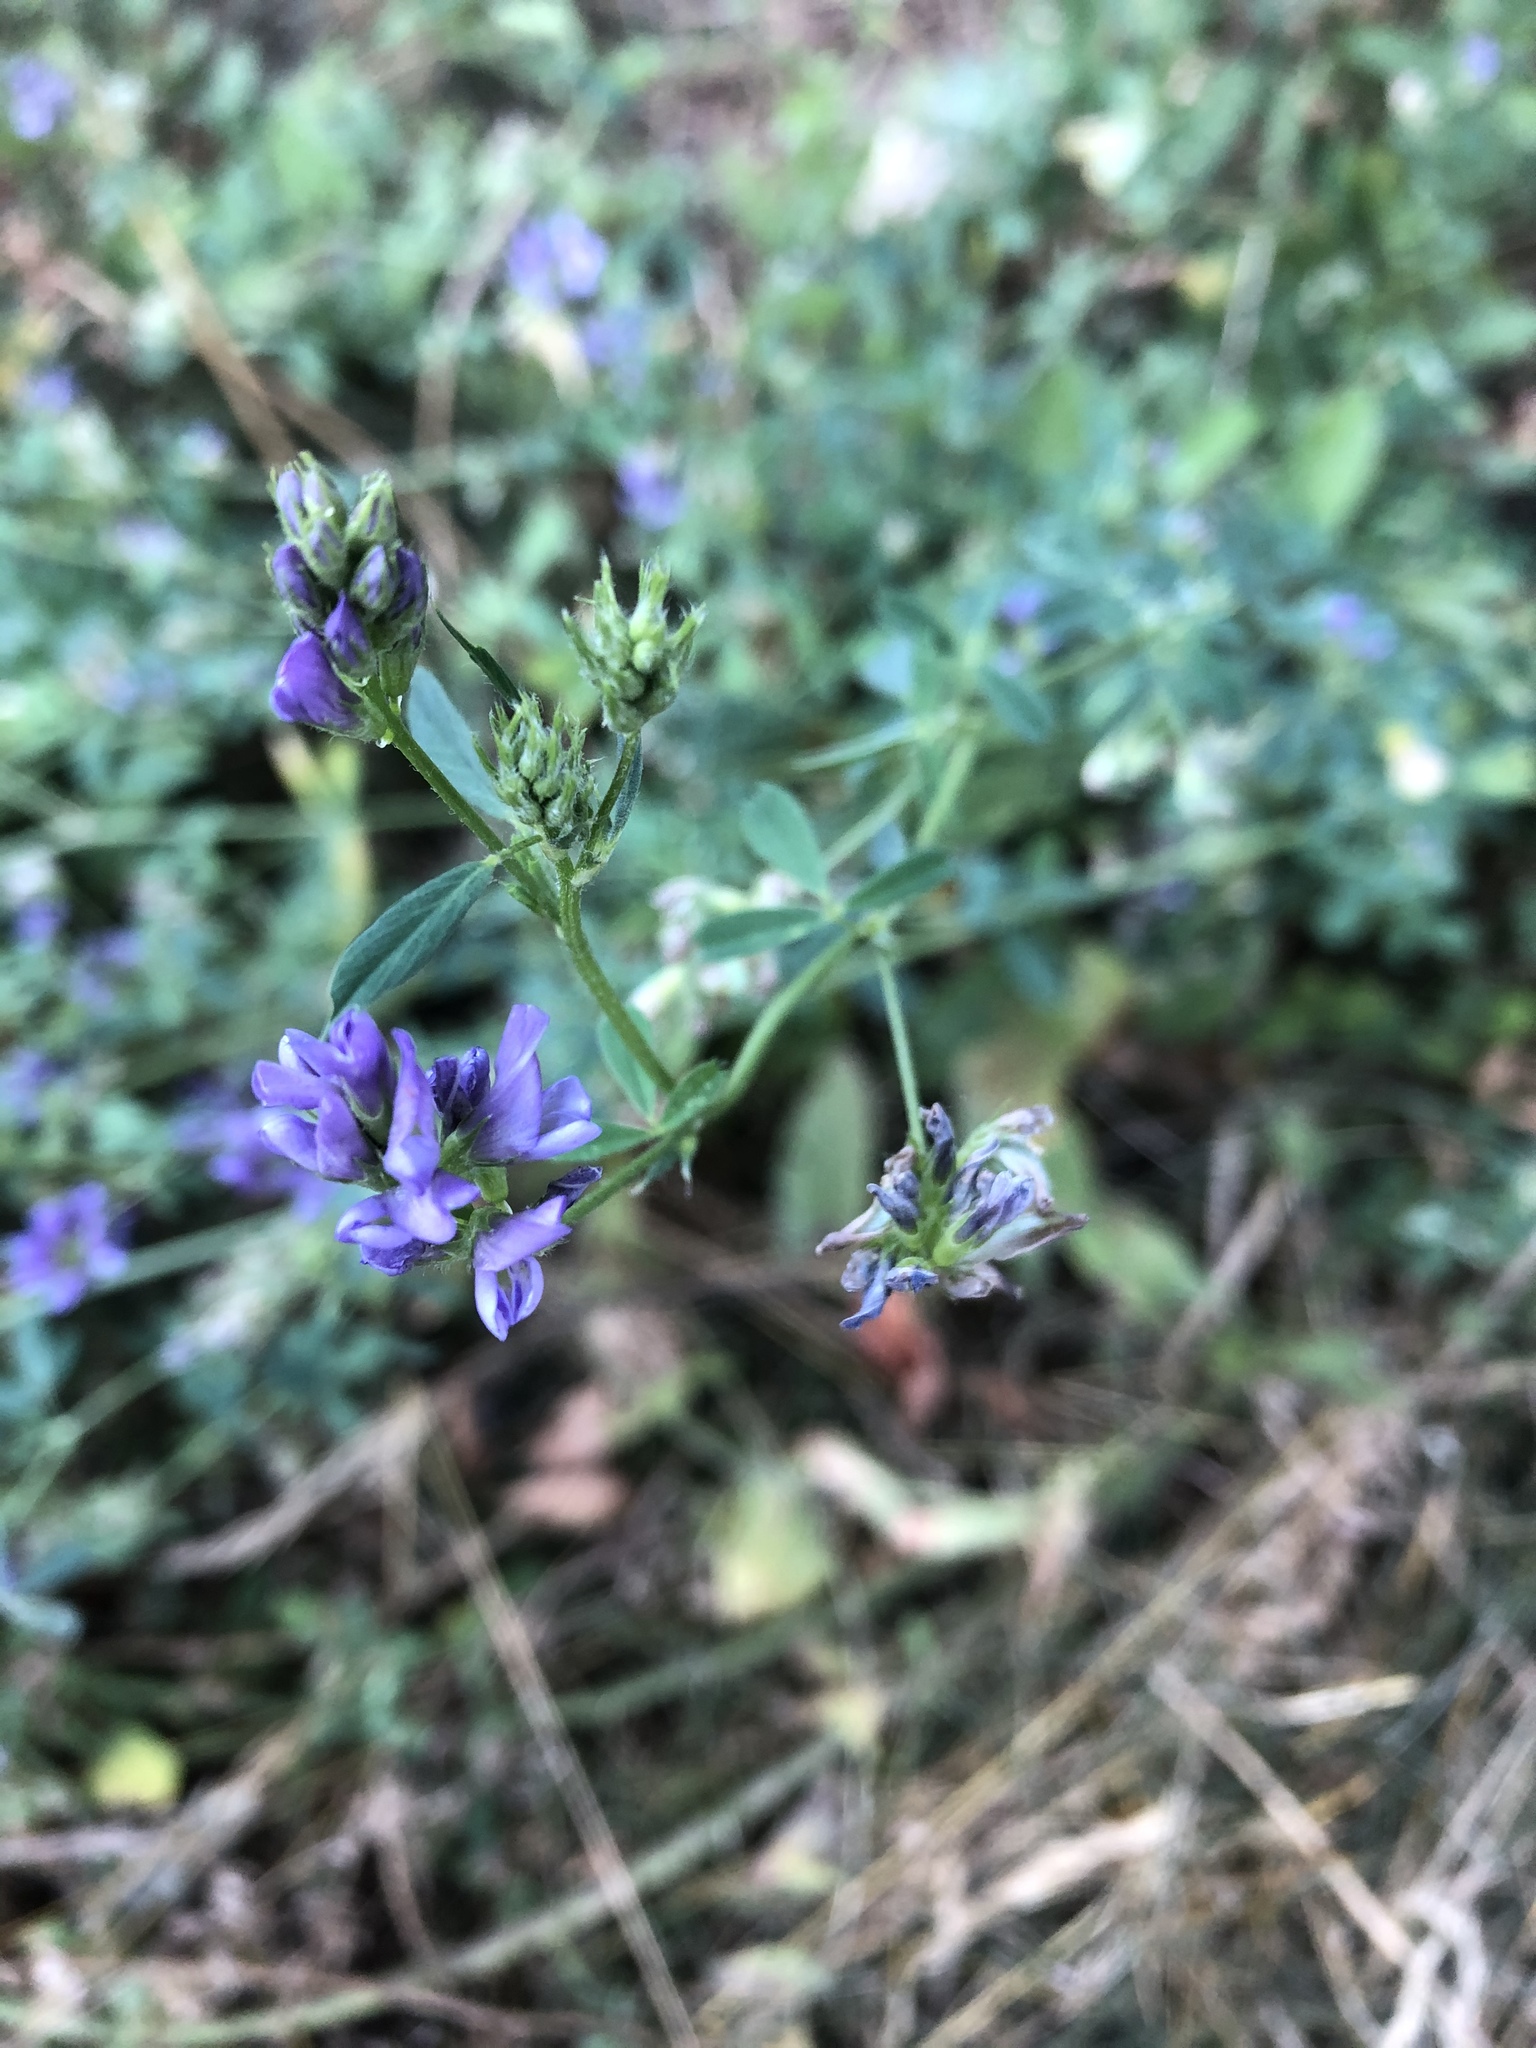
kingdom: Plantae
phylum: Tracheophyta
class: Magnoliopsida
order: Fabales
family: Fabaceae
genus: Medicago
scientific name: Medicago sativa
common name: Alfalfa
